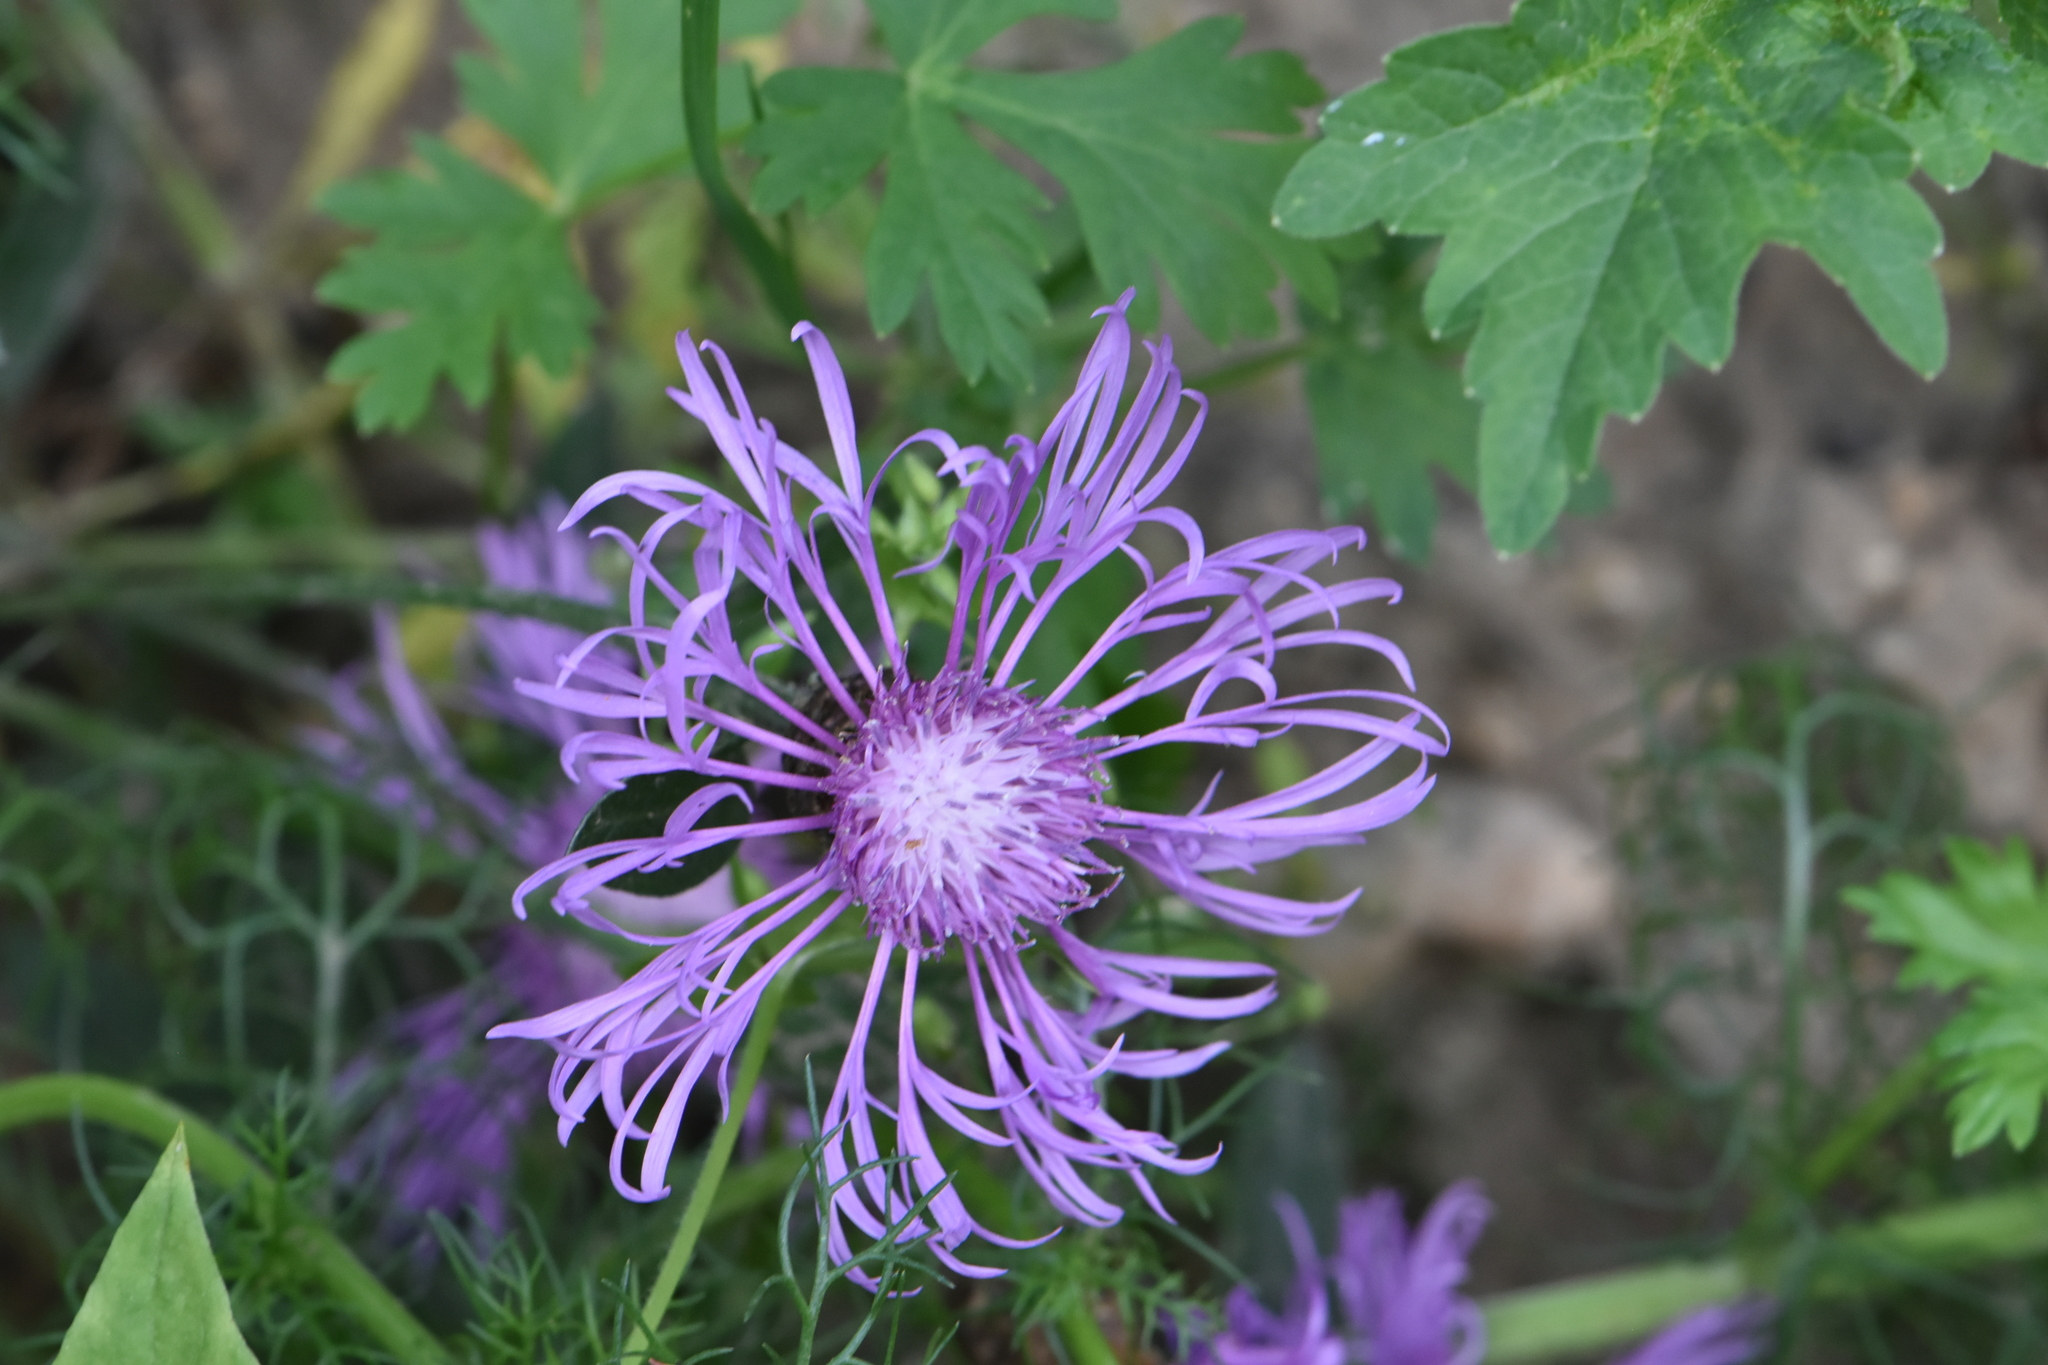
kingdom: Plantae
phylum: Tracheophyta
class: Magnoliopsida
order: Asterales
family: Asteraceae
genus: Centaurea
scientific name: Centaurea jacea
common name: Brown knapweed
